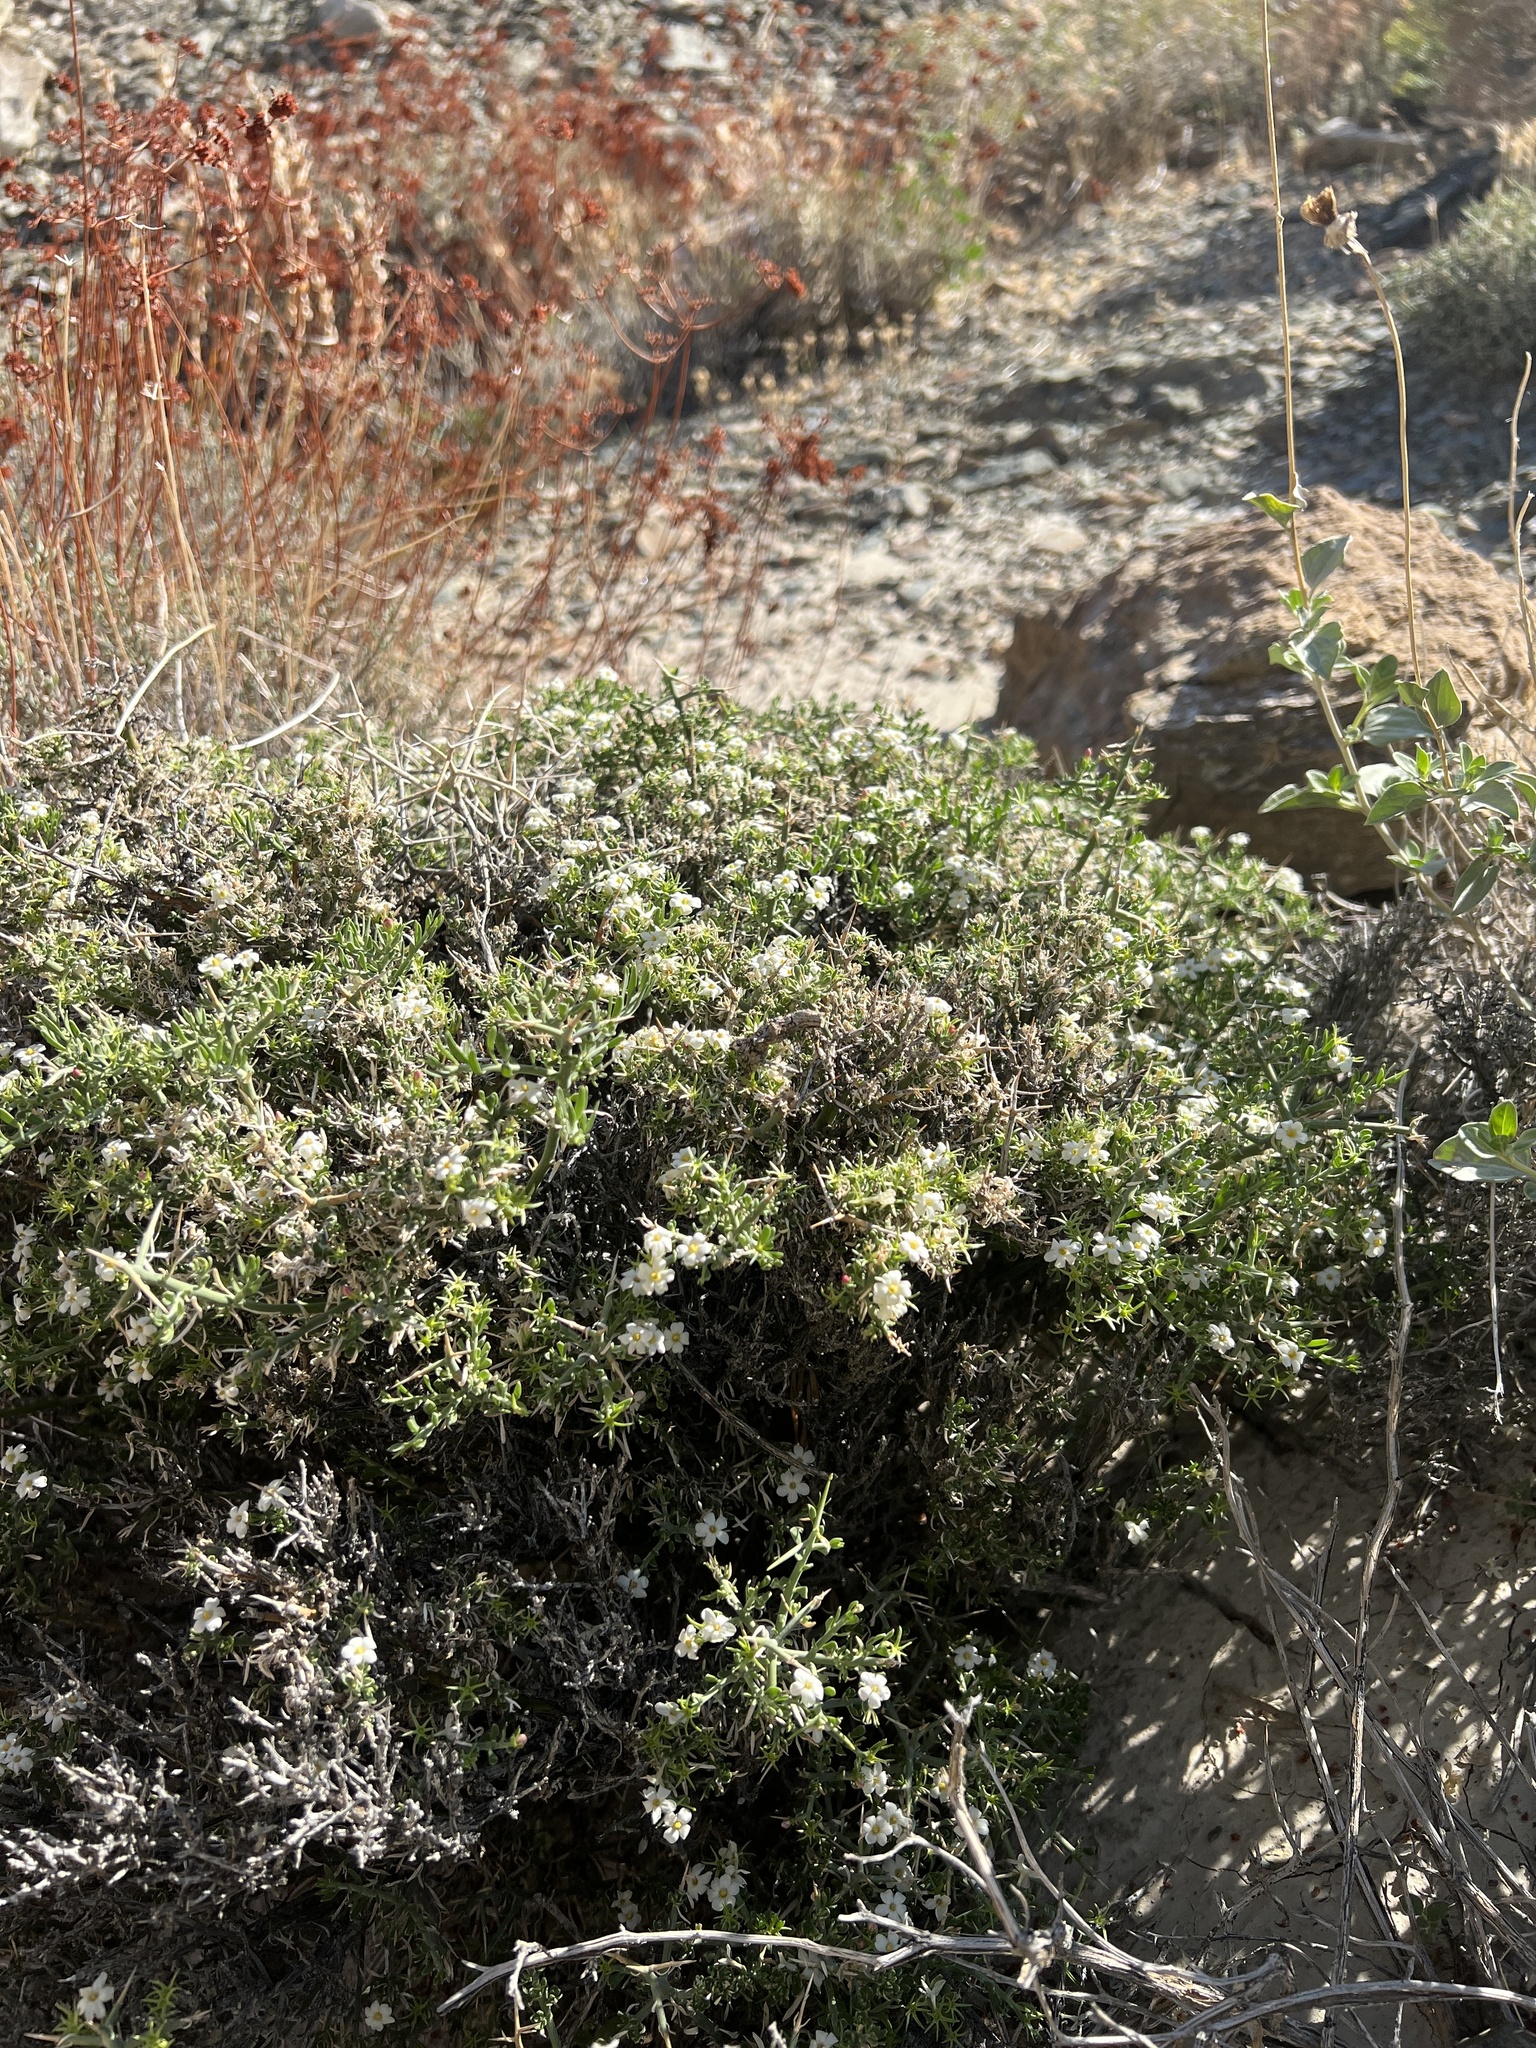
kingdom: Plantae
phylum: Tracheophyta
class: Magnoliopsida
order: Lamiales
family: Oleaceae
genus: Menodora
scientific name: Menodora spinescens
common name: Spiny menodora
